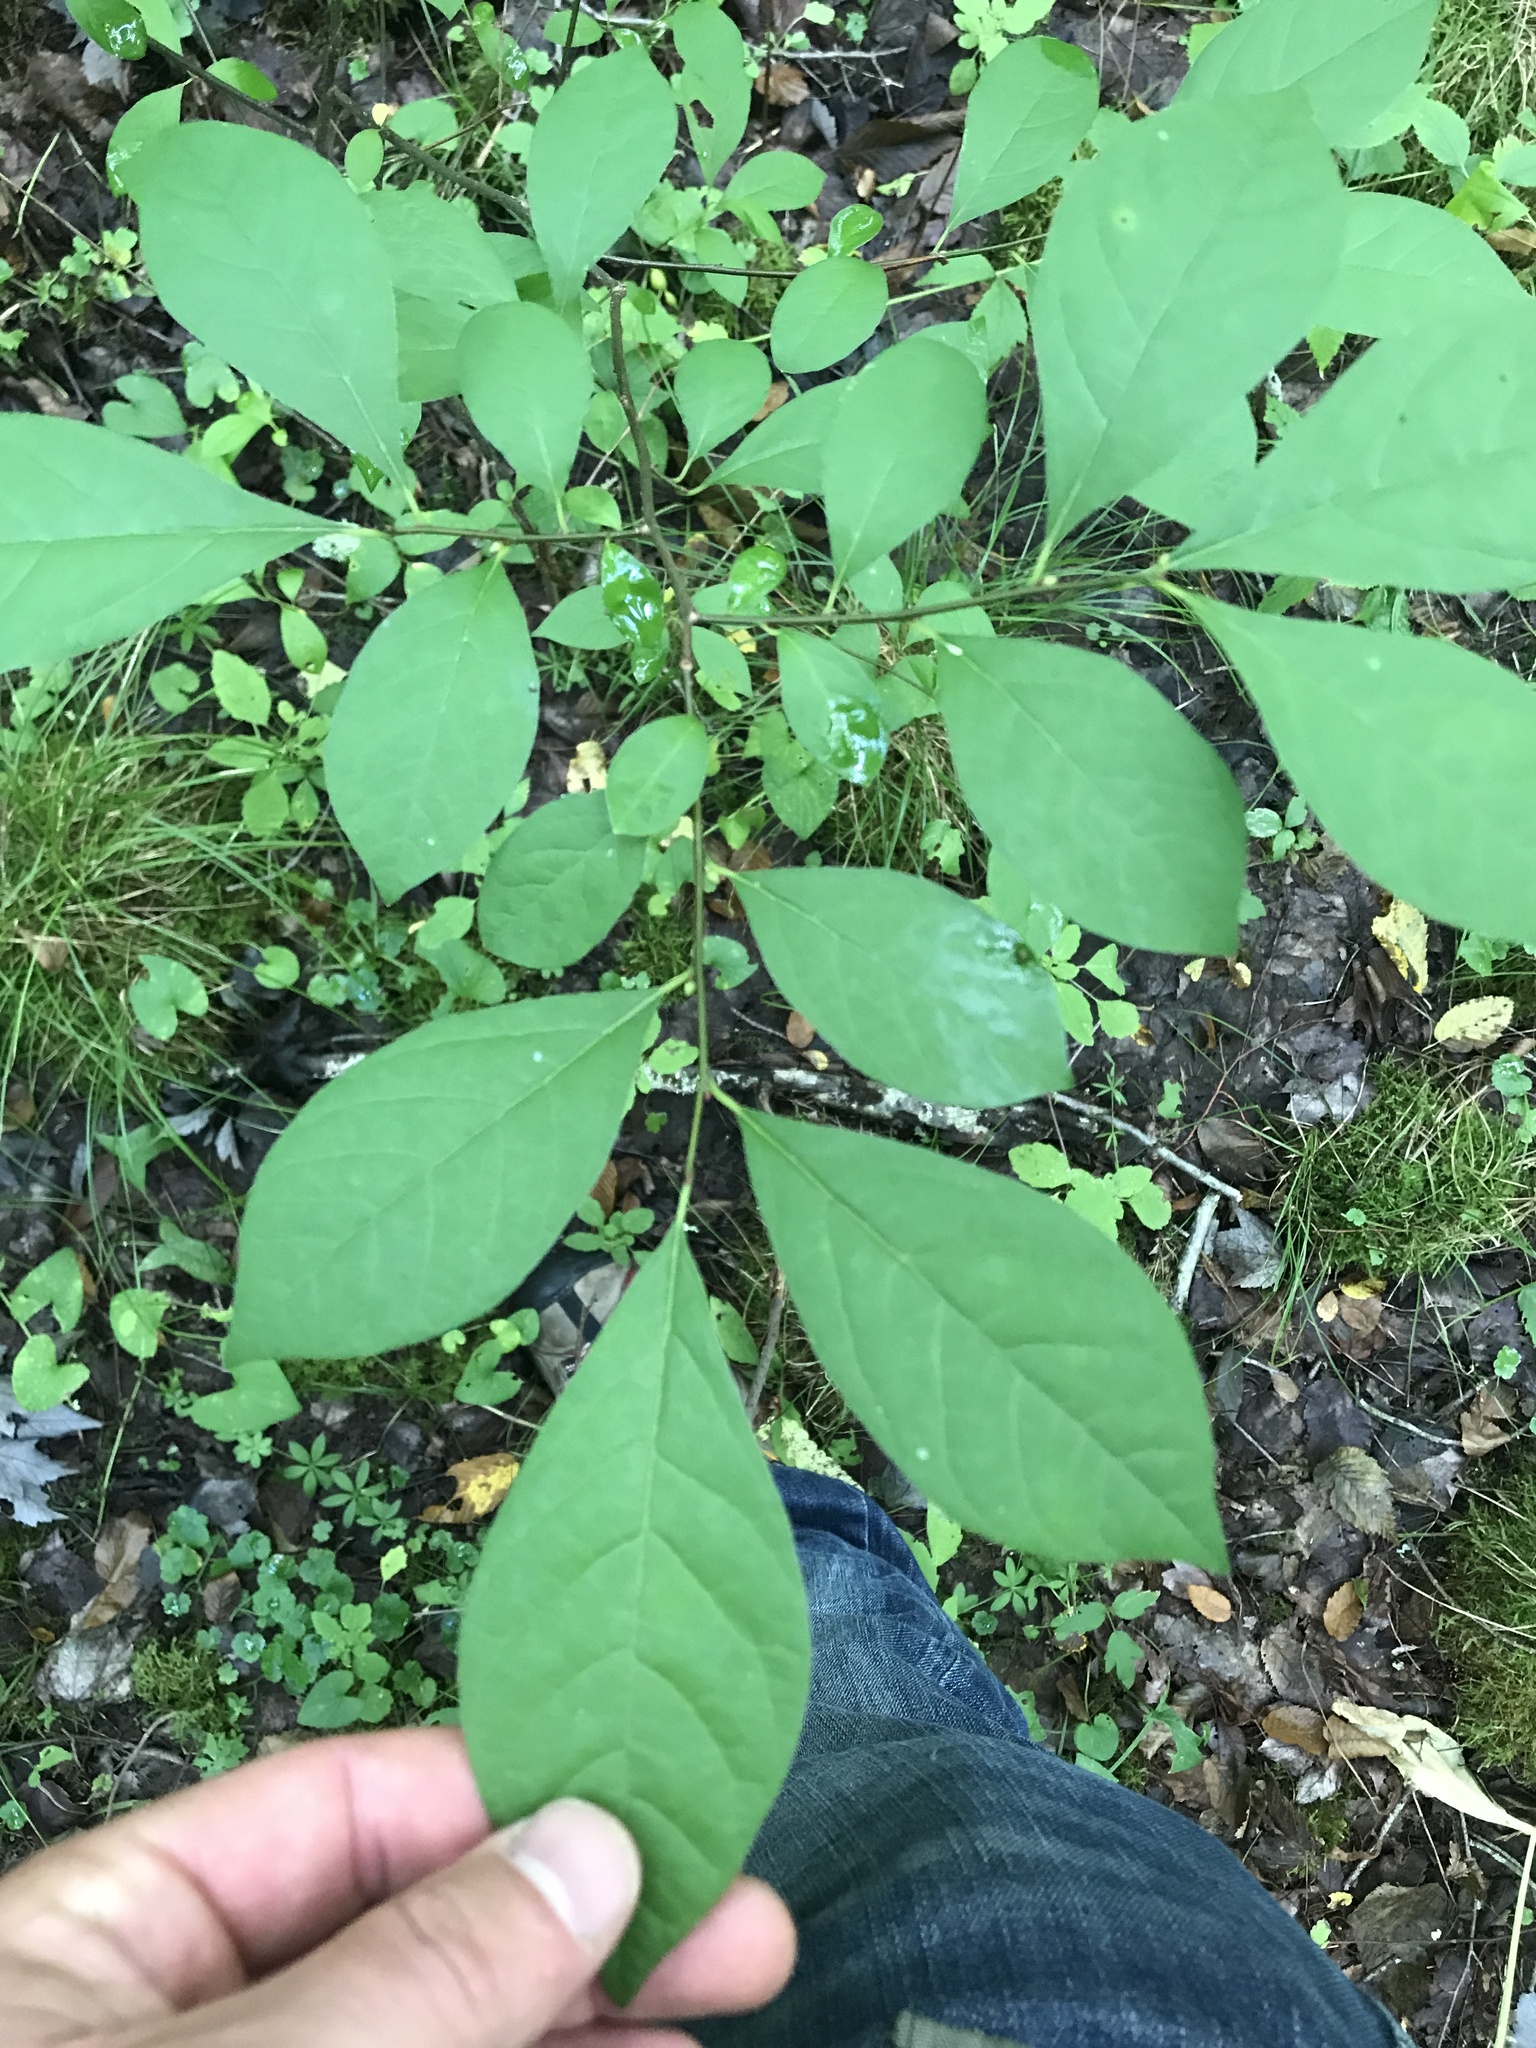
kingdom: Plantae
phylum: Tracheophyta
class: Magnoliopsida
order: Laurales
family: Lauraceae
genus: Lindera
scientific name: Lindera benzoin
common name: Spicebush
